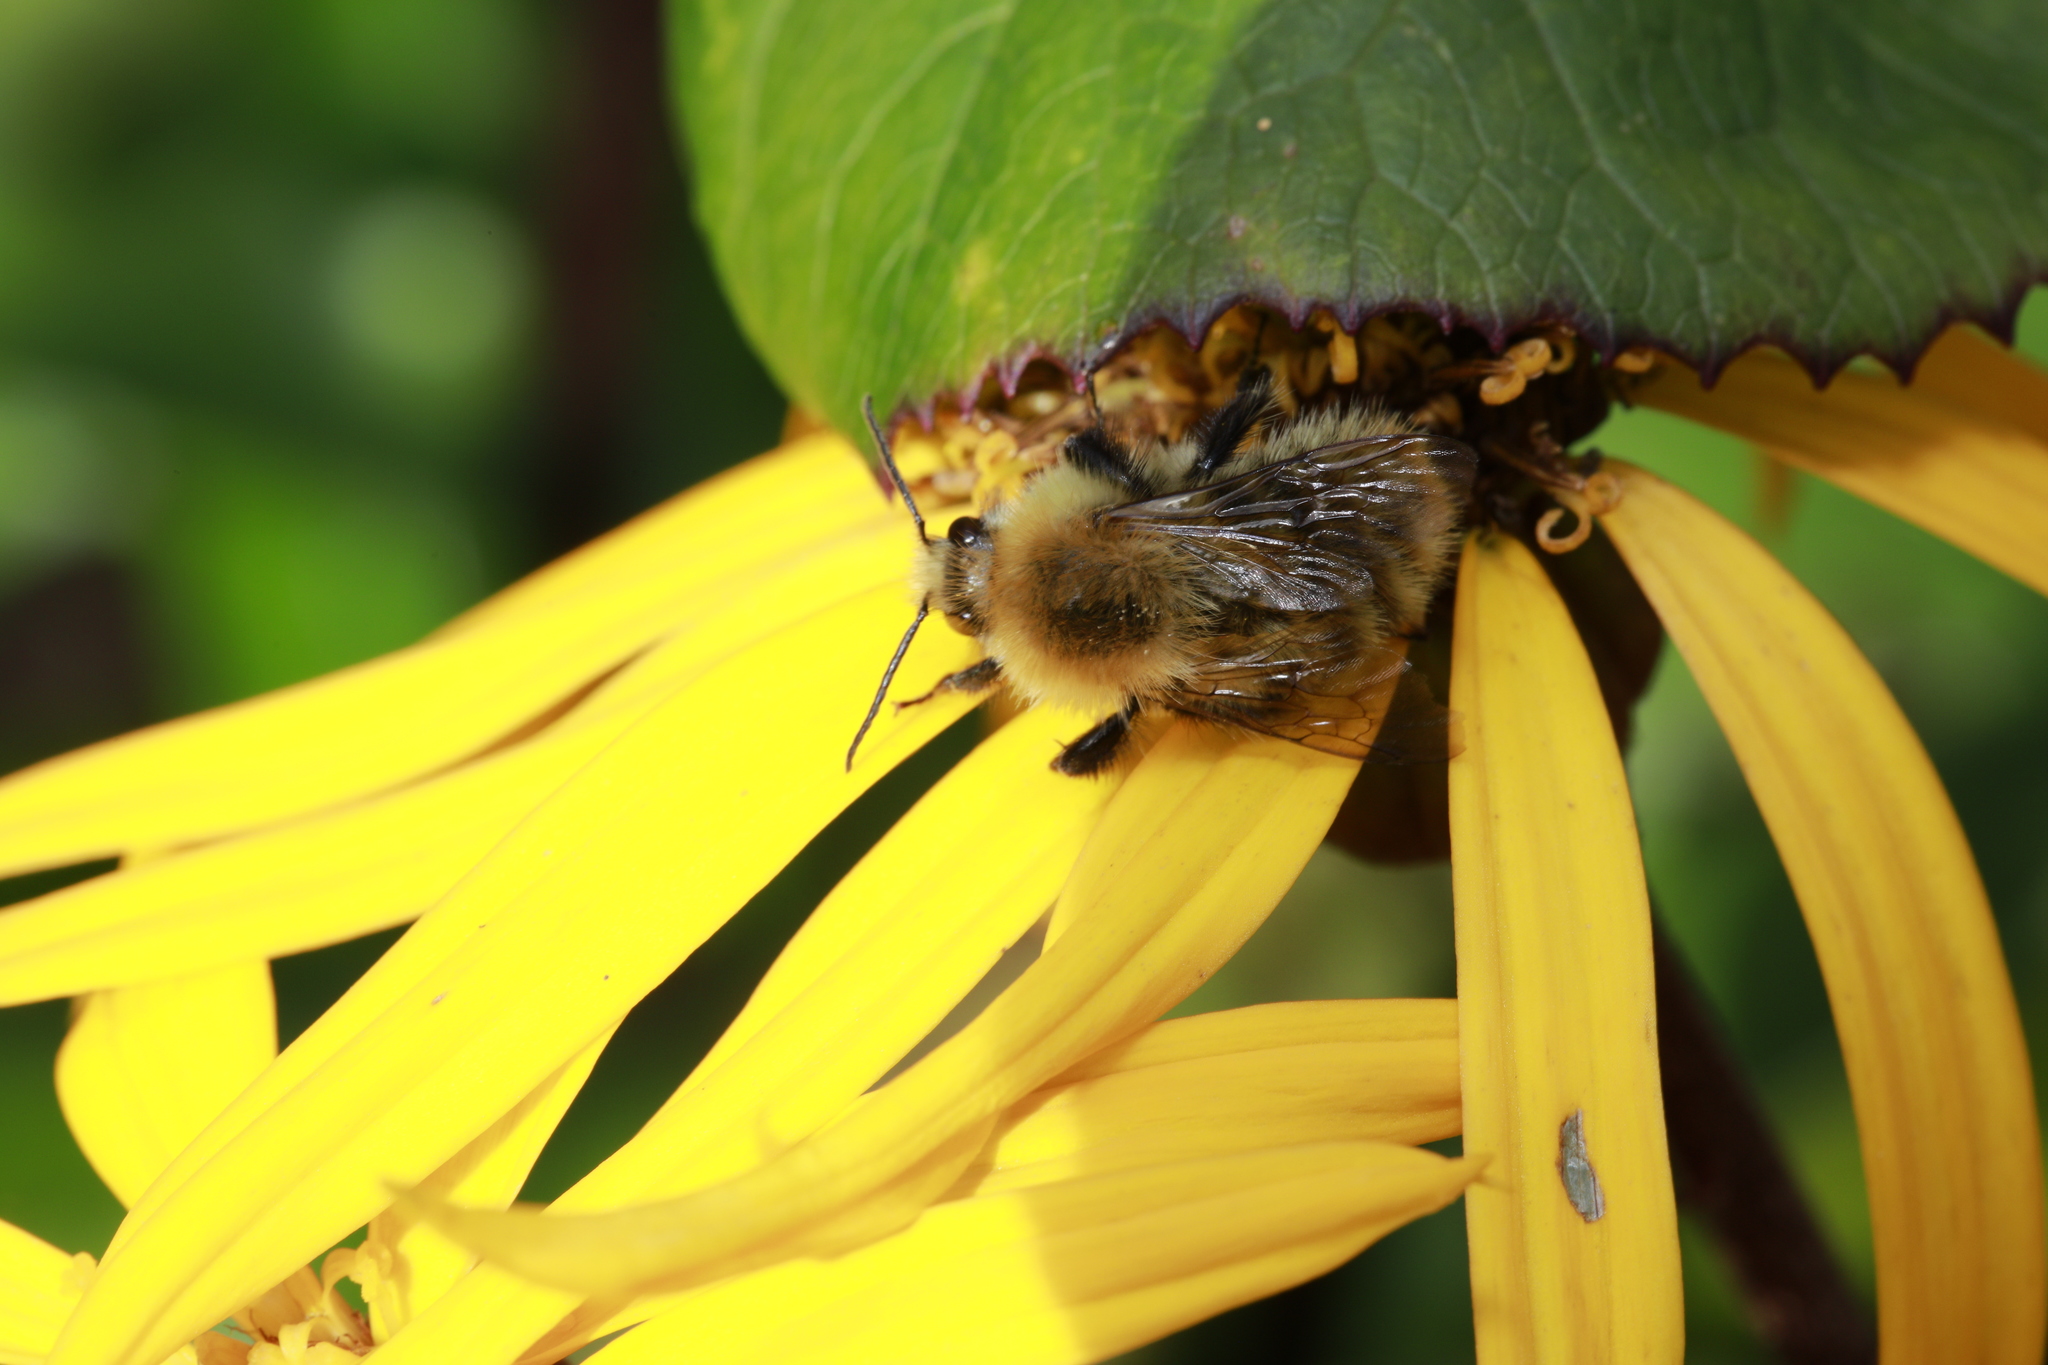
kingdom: Animalia
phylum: Arthropoda
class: Insecta
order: Hymenoptera
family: Apidae
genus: Bombus
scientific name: Bombus pascuorum
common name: Common carder bee
